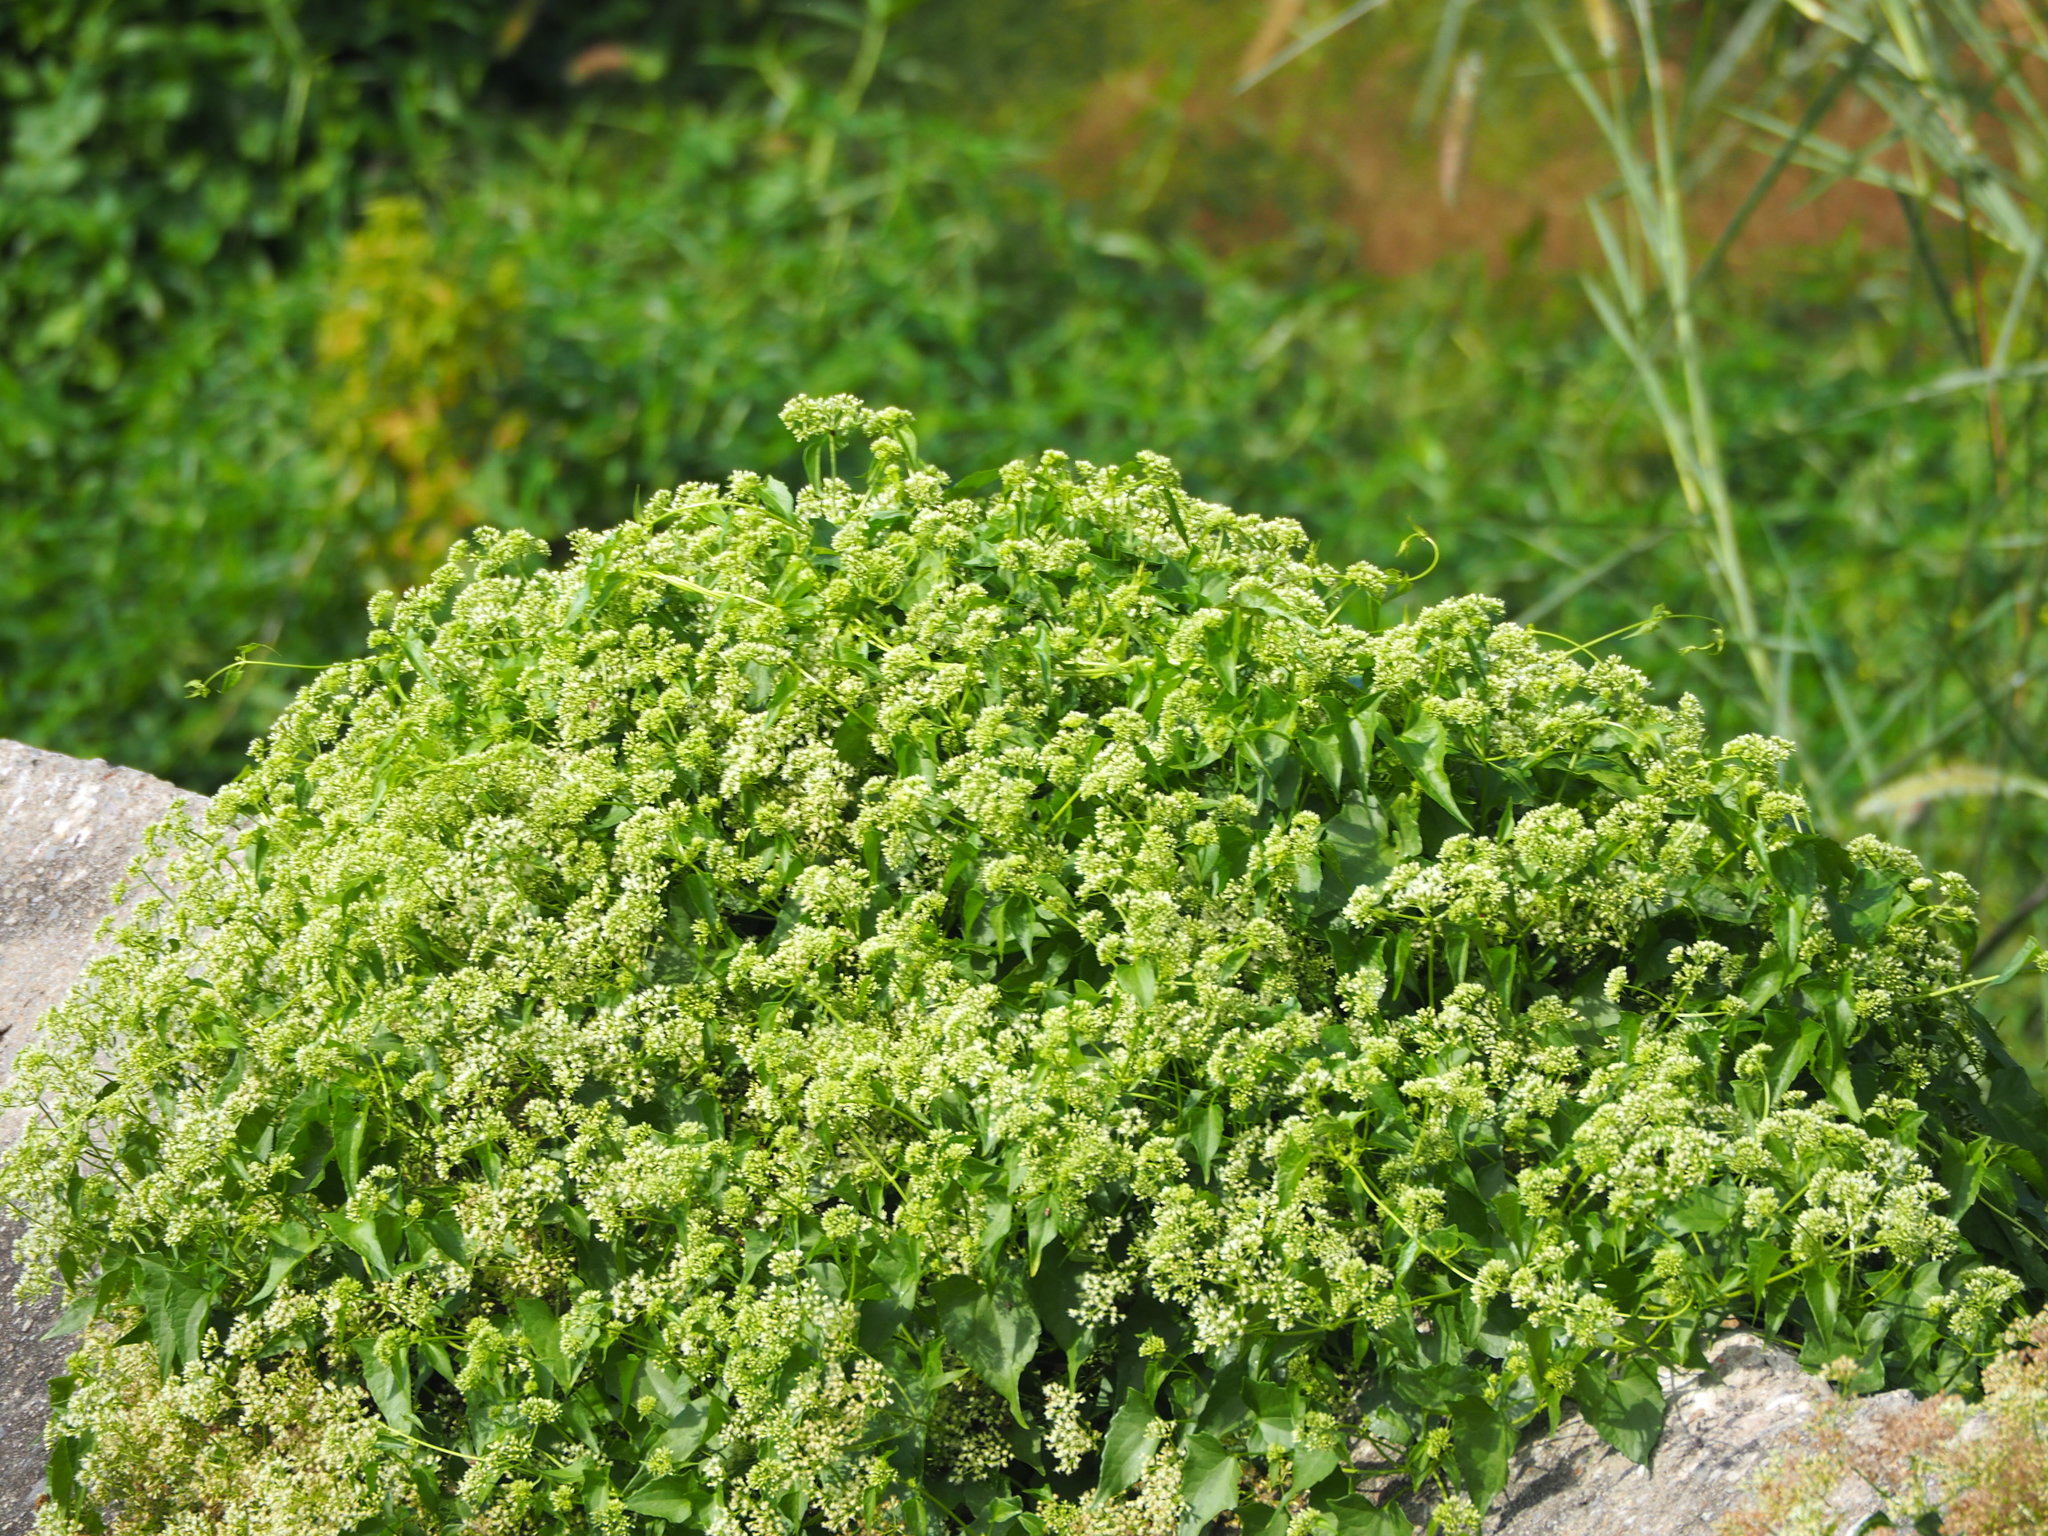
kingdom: Plantae
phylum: Tracheophyta
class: Magnoliopsida
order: Asterales
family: Asteraceae
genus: Mikania
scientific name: Mikania micrantha
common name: Mile-a-minute
